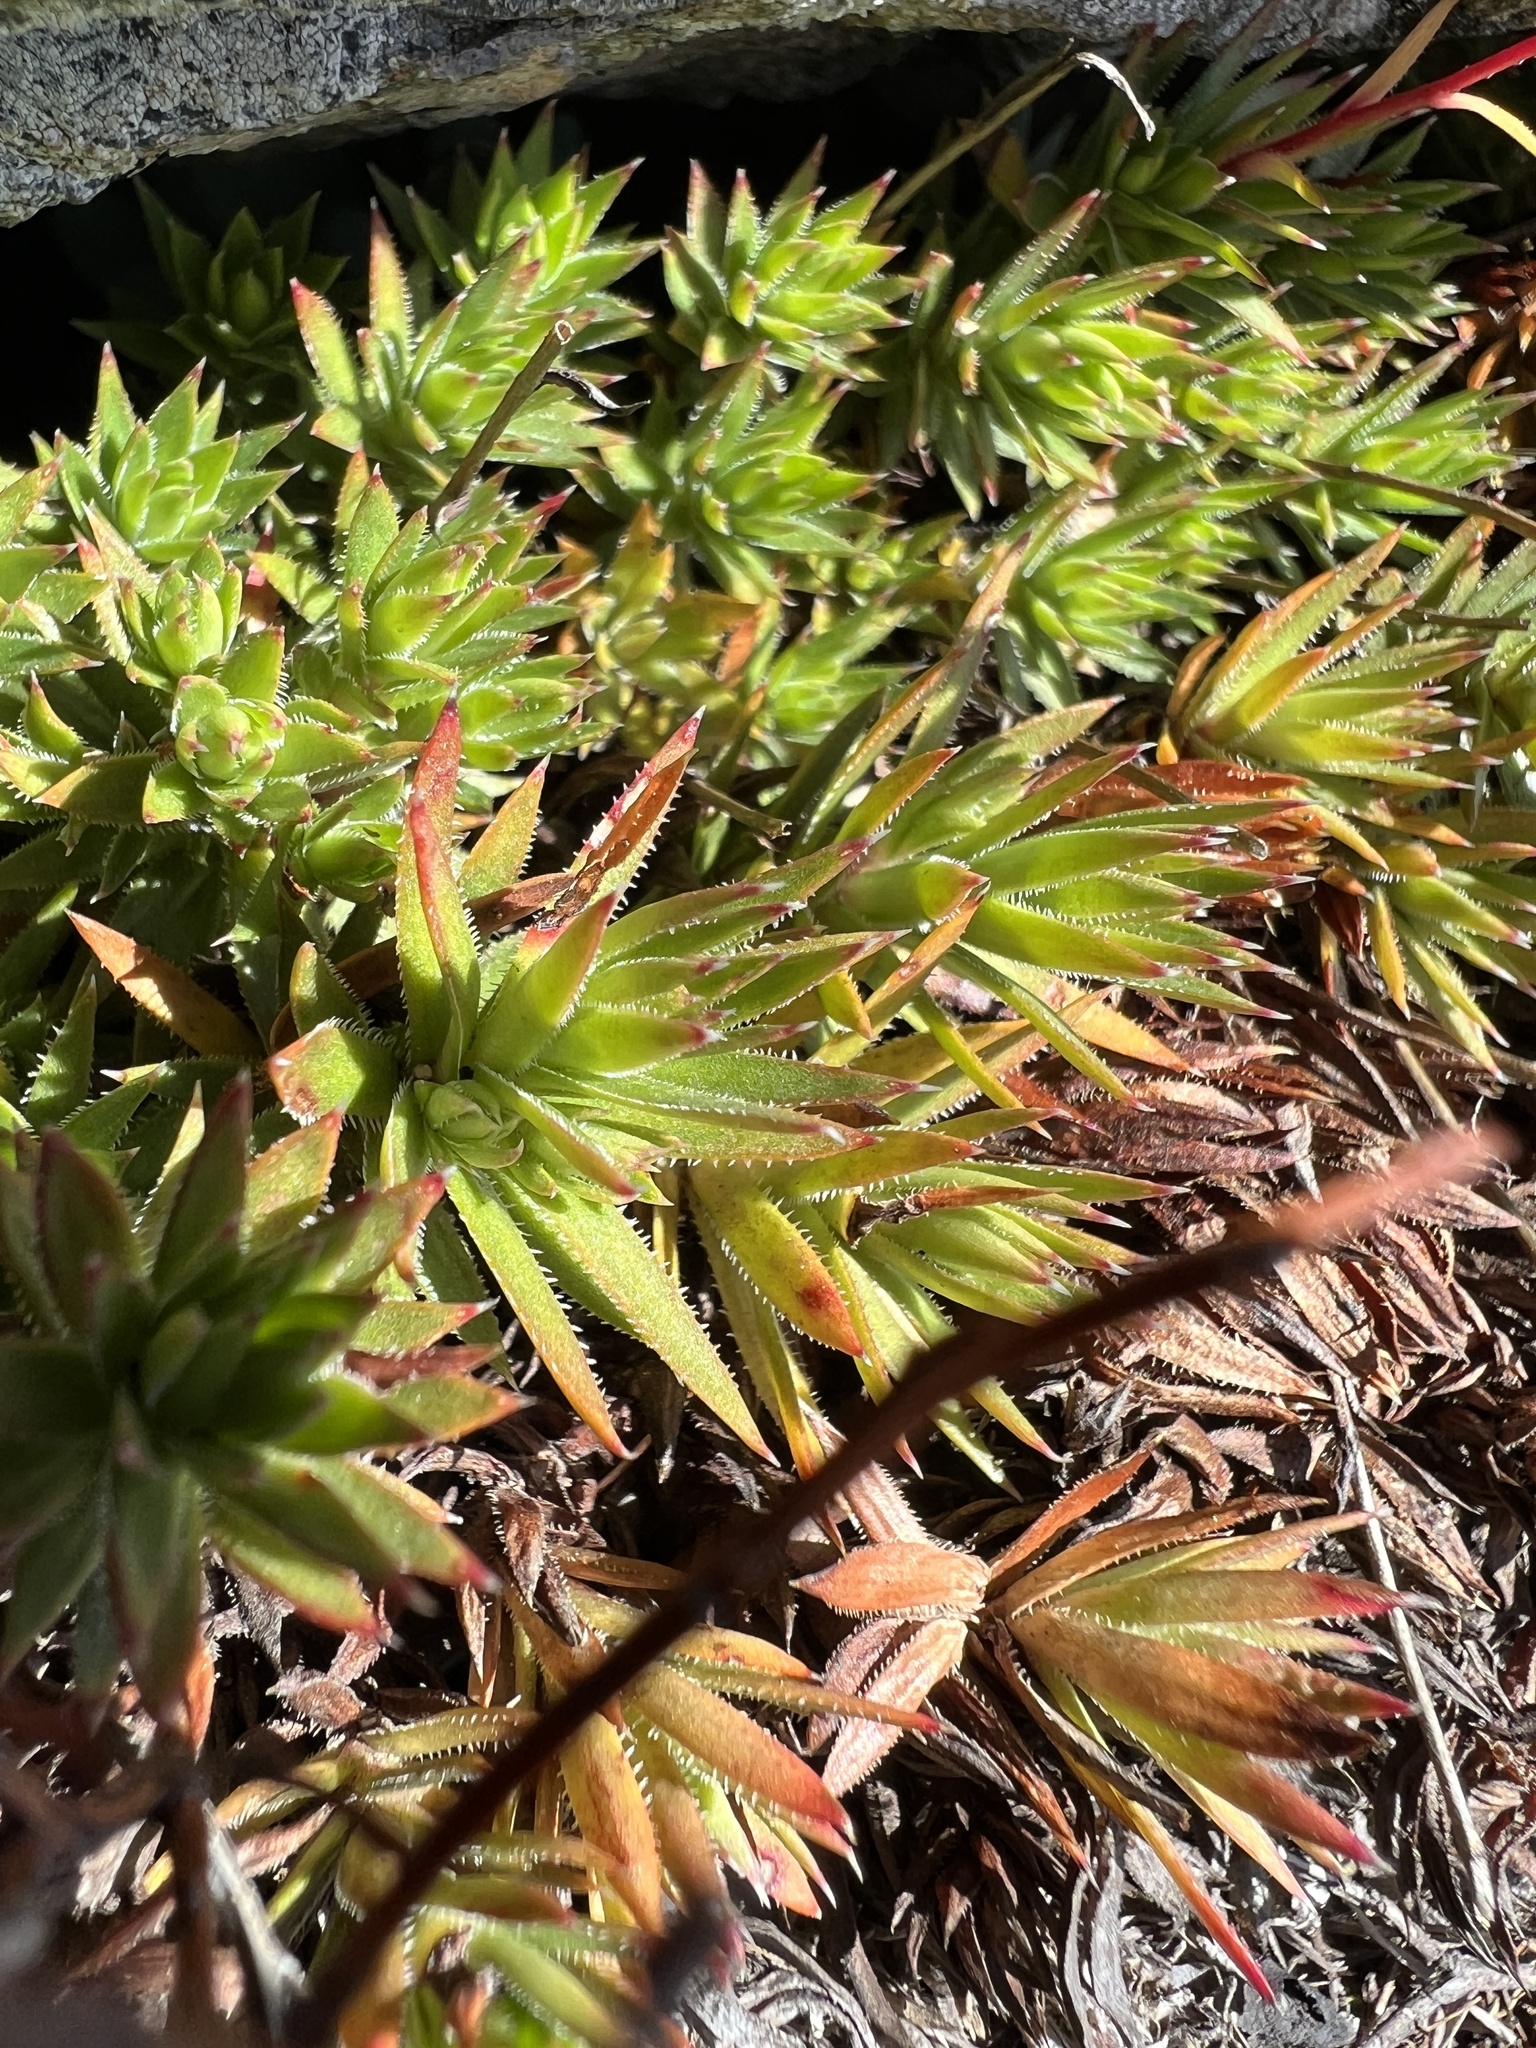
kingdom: Plantae
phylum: Tracheophyta
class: Magnoliopsida
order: Saxifragales
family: Saxifragaceae
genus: Saxifraga
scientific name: Saxifraga bronchialis
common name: Matted saxifrage
